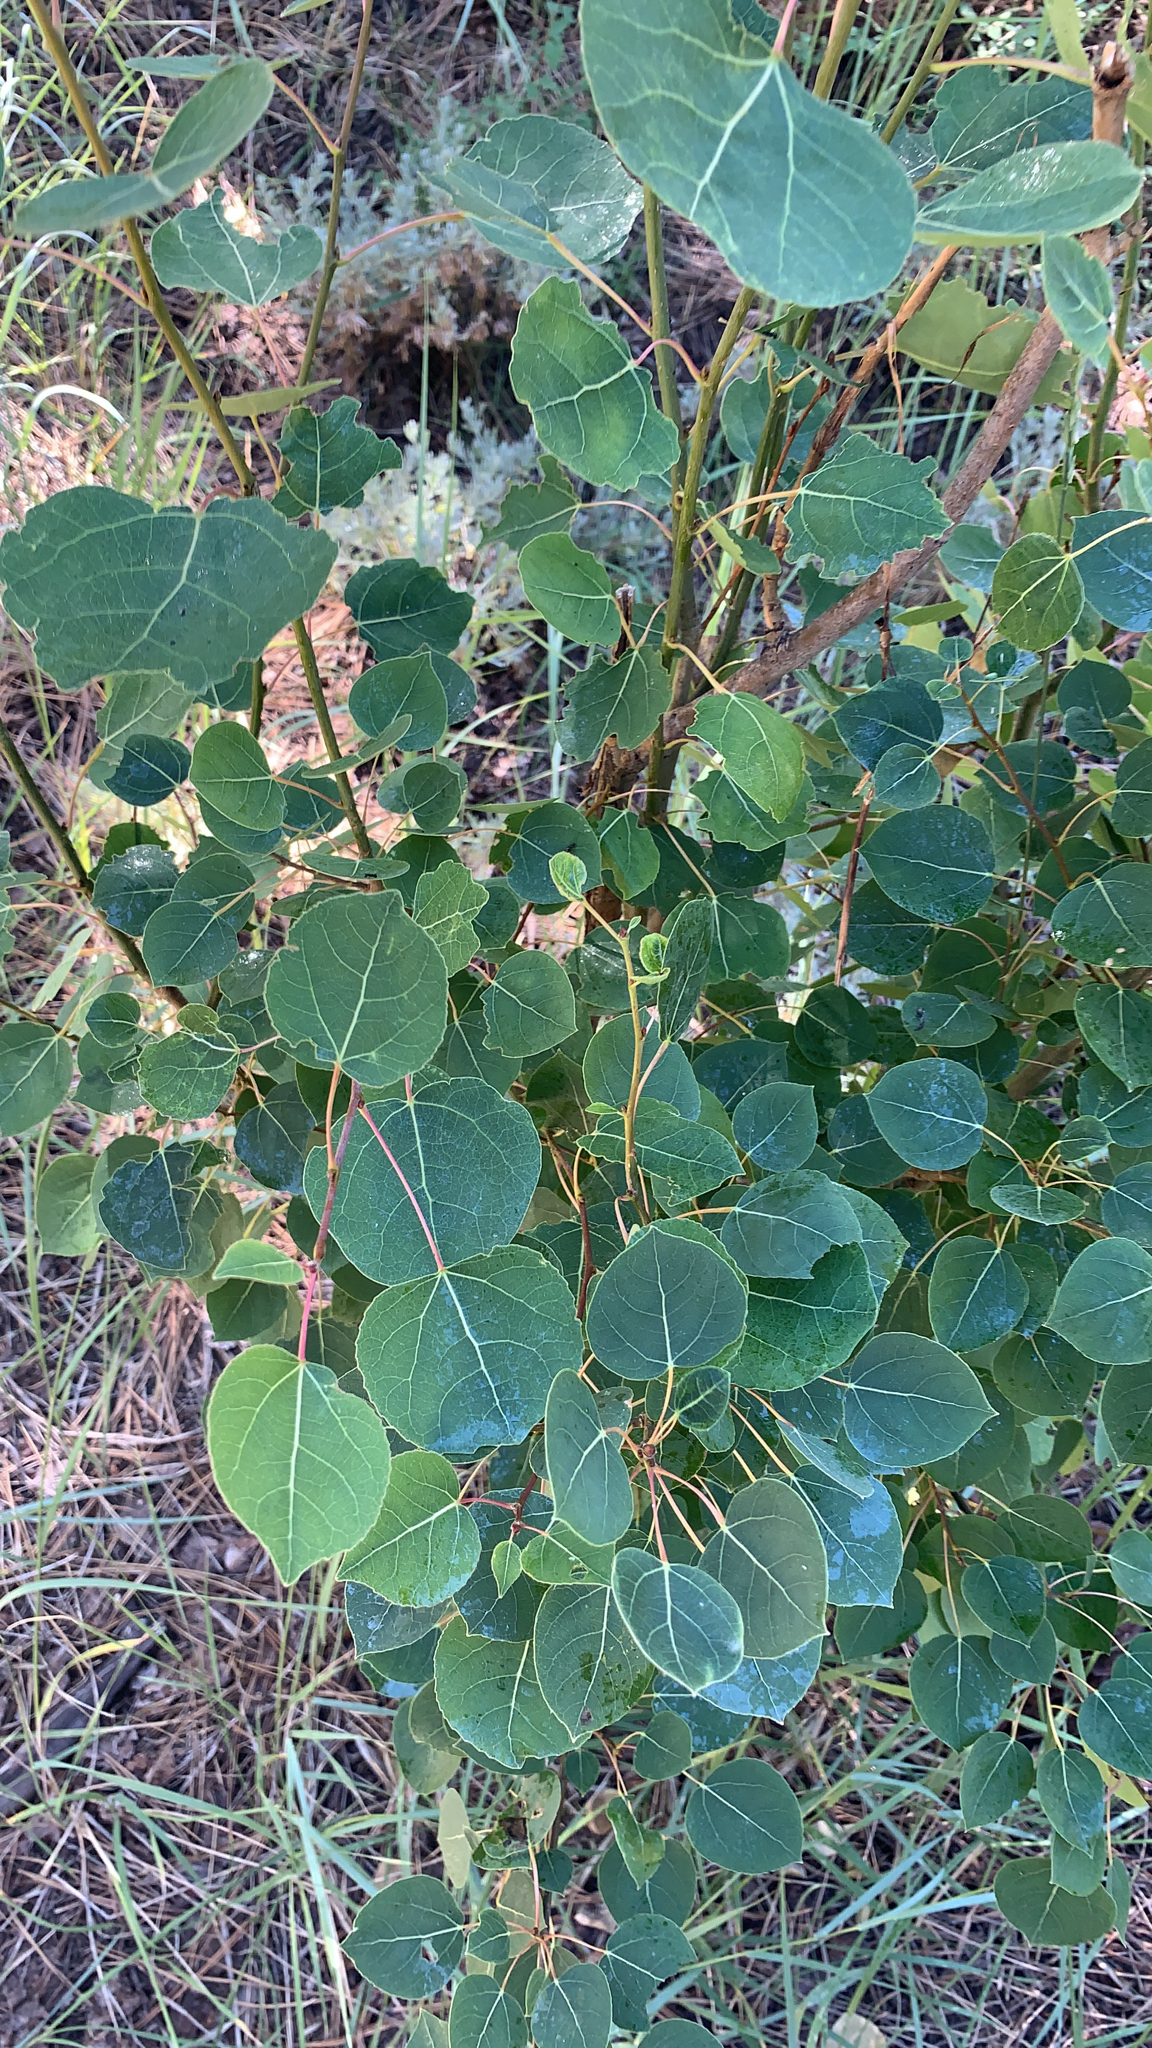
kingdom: Plantae
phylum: Tracheophyta
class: Magnoliopsida
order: Malpighiales
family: Salicaceae
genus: Populus
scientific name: Populus tremuloides
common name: Quaking aspen
